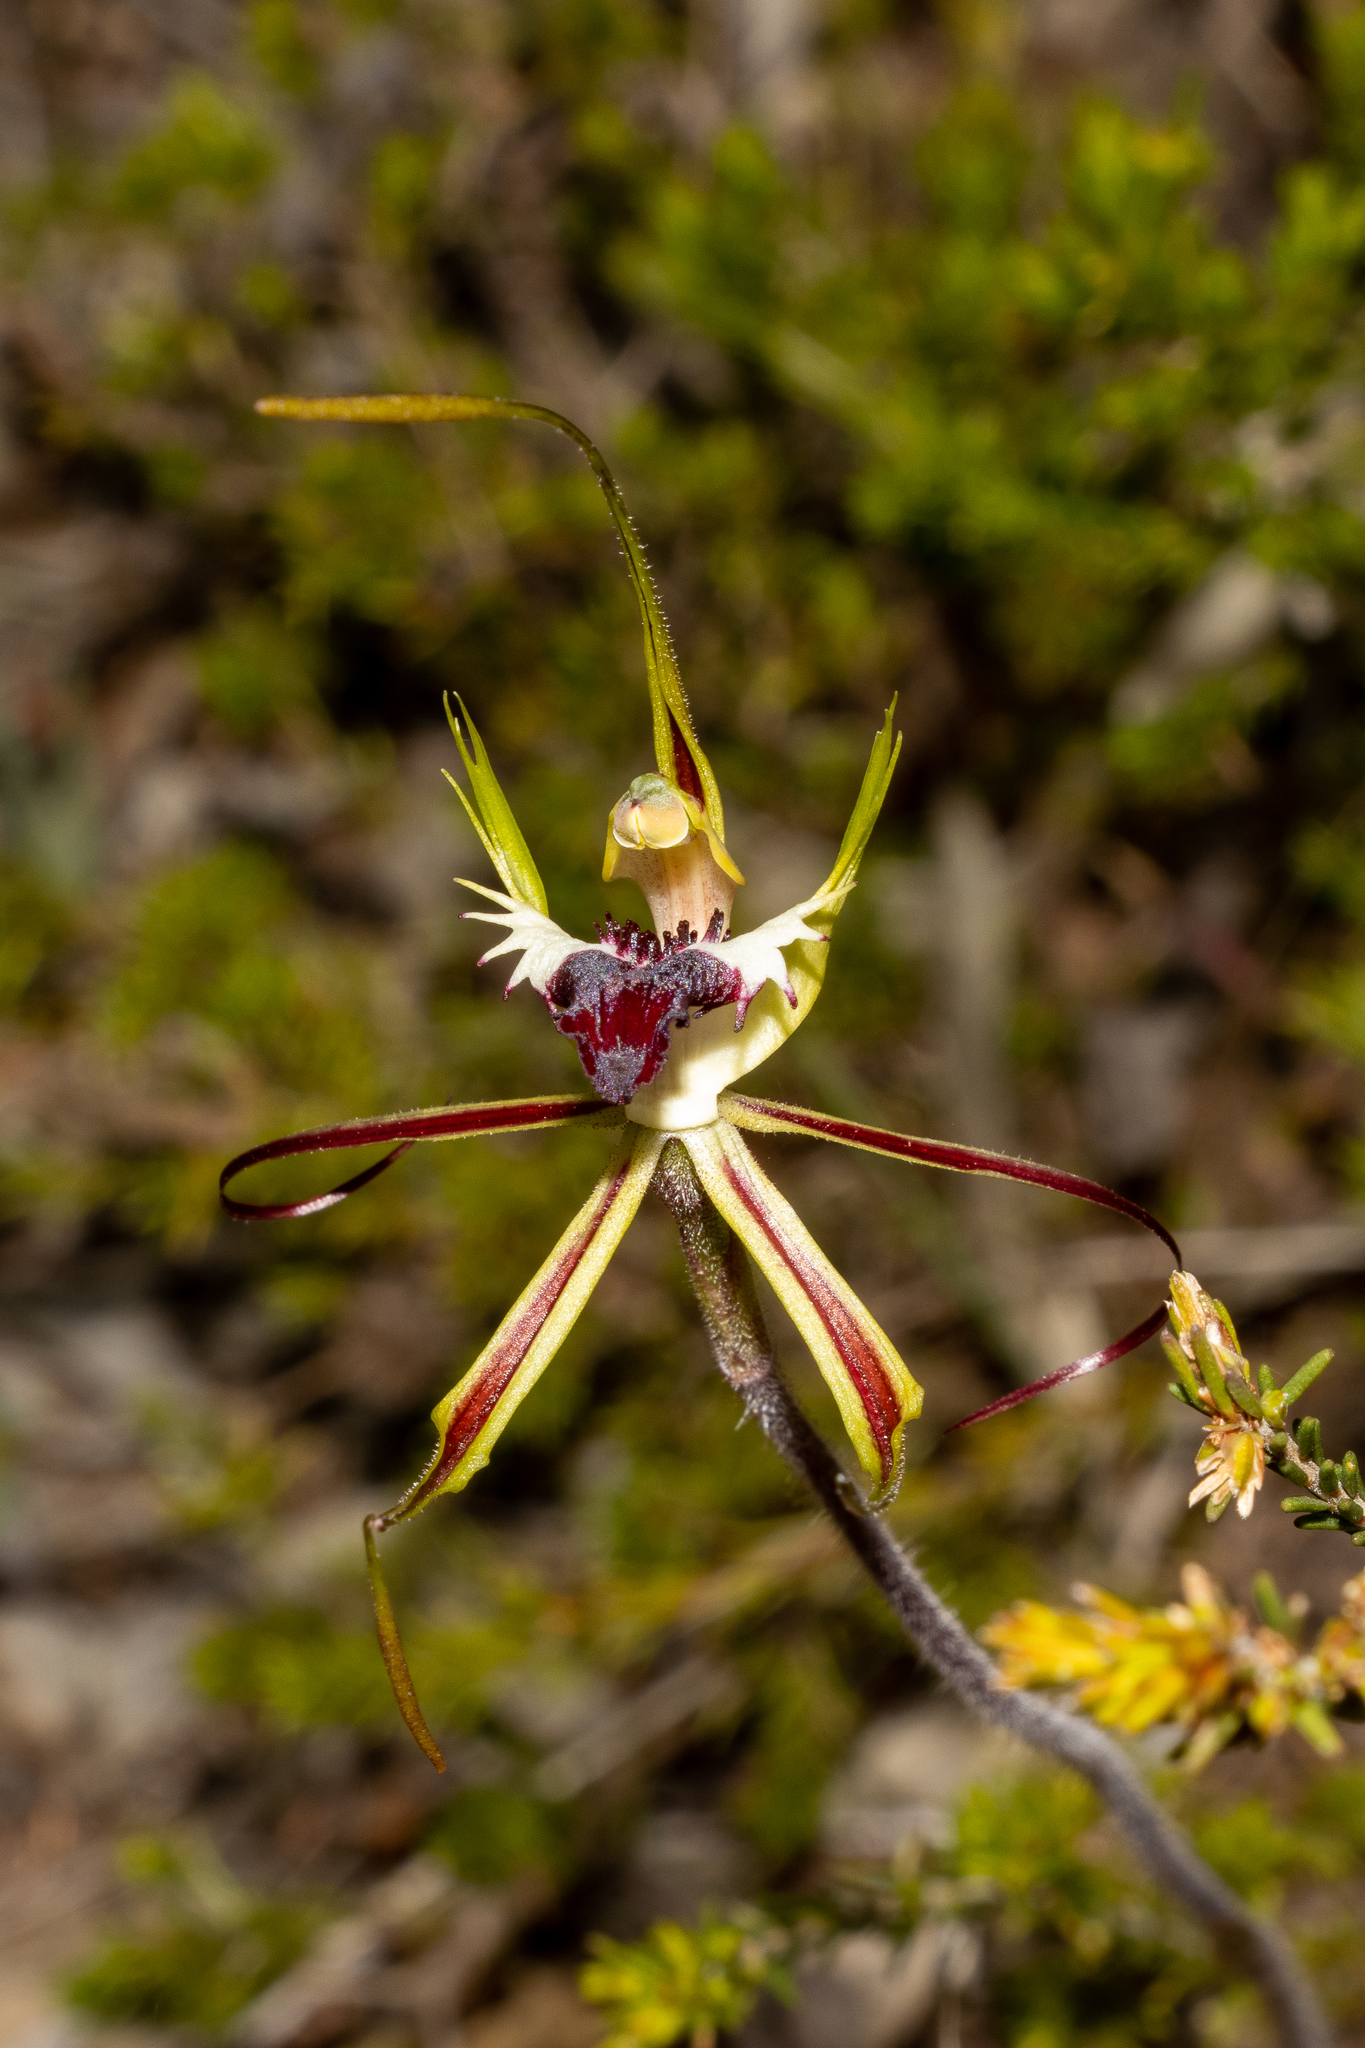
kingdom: Plantae
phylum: Tracheophyta
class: Liliopsida
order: Asparagales
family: Orchidaceae
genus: Caladenia
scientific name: Caladenia tentaculata
